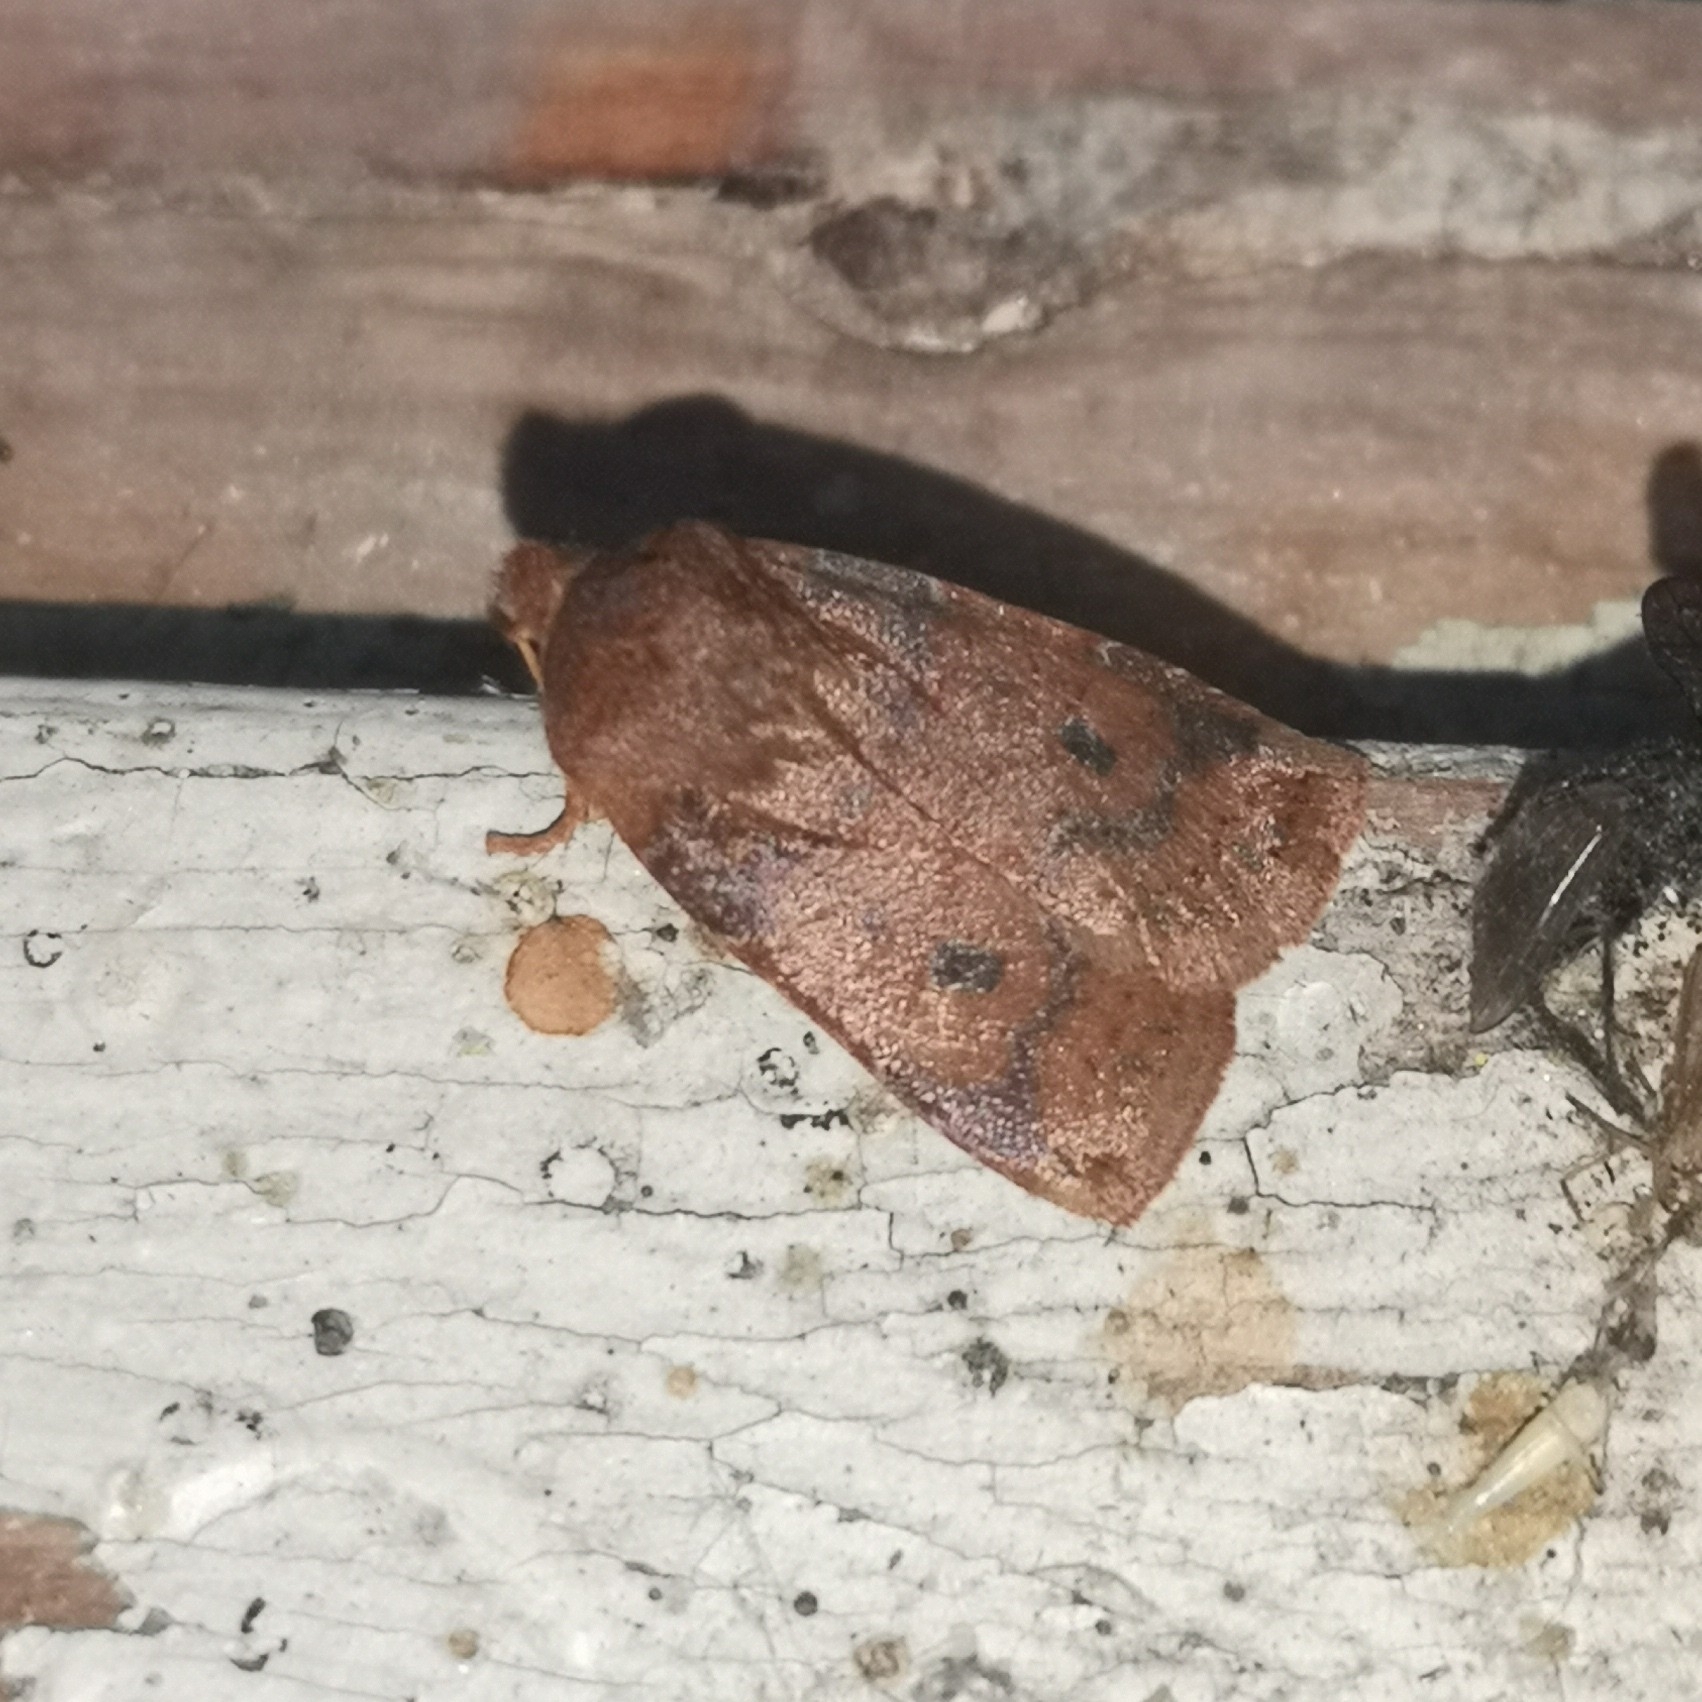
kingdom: Animalia
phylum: Arthropoda
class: Insecta
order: Lepidoptera
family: Noctuidae
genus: Conistra
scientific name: Conistra vaccinii
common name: Chestnut
